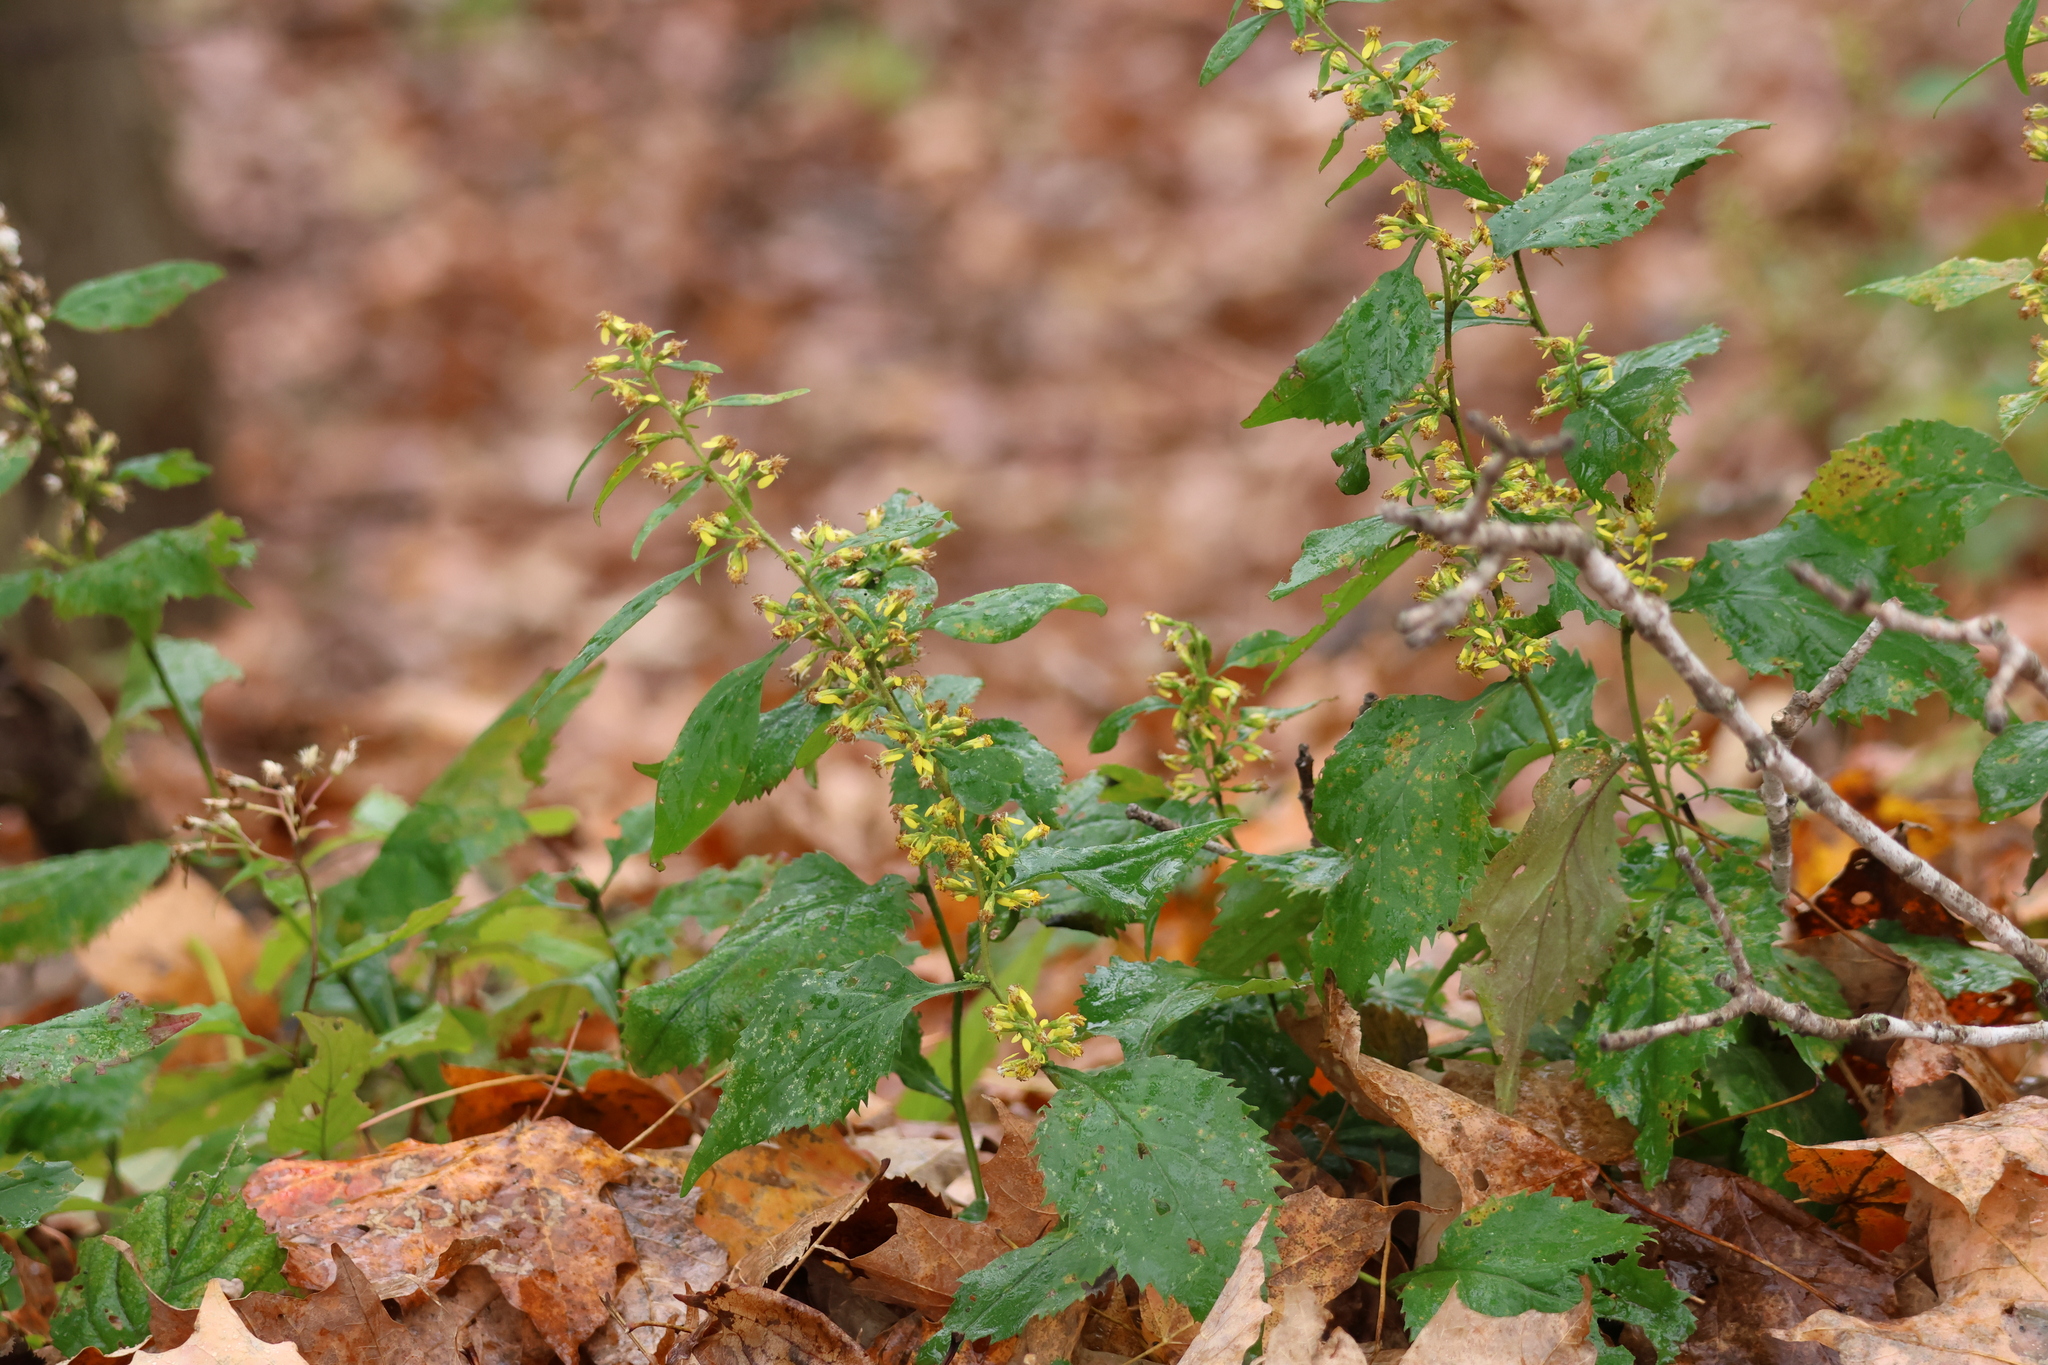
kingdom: Plantae
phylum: Tracheophyta
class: Magnoliopsida
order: Asterales
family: Asteraceae
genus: Solidago
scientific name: Solidago flexicaulis
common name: Zig-zag goldenrod
